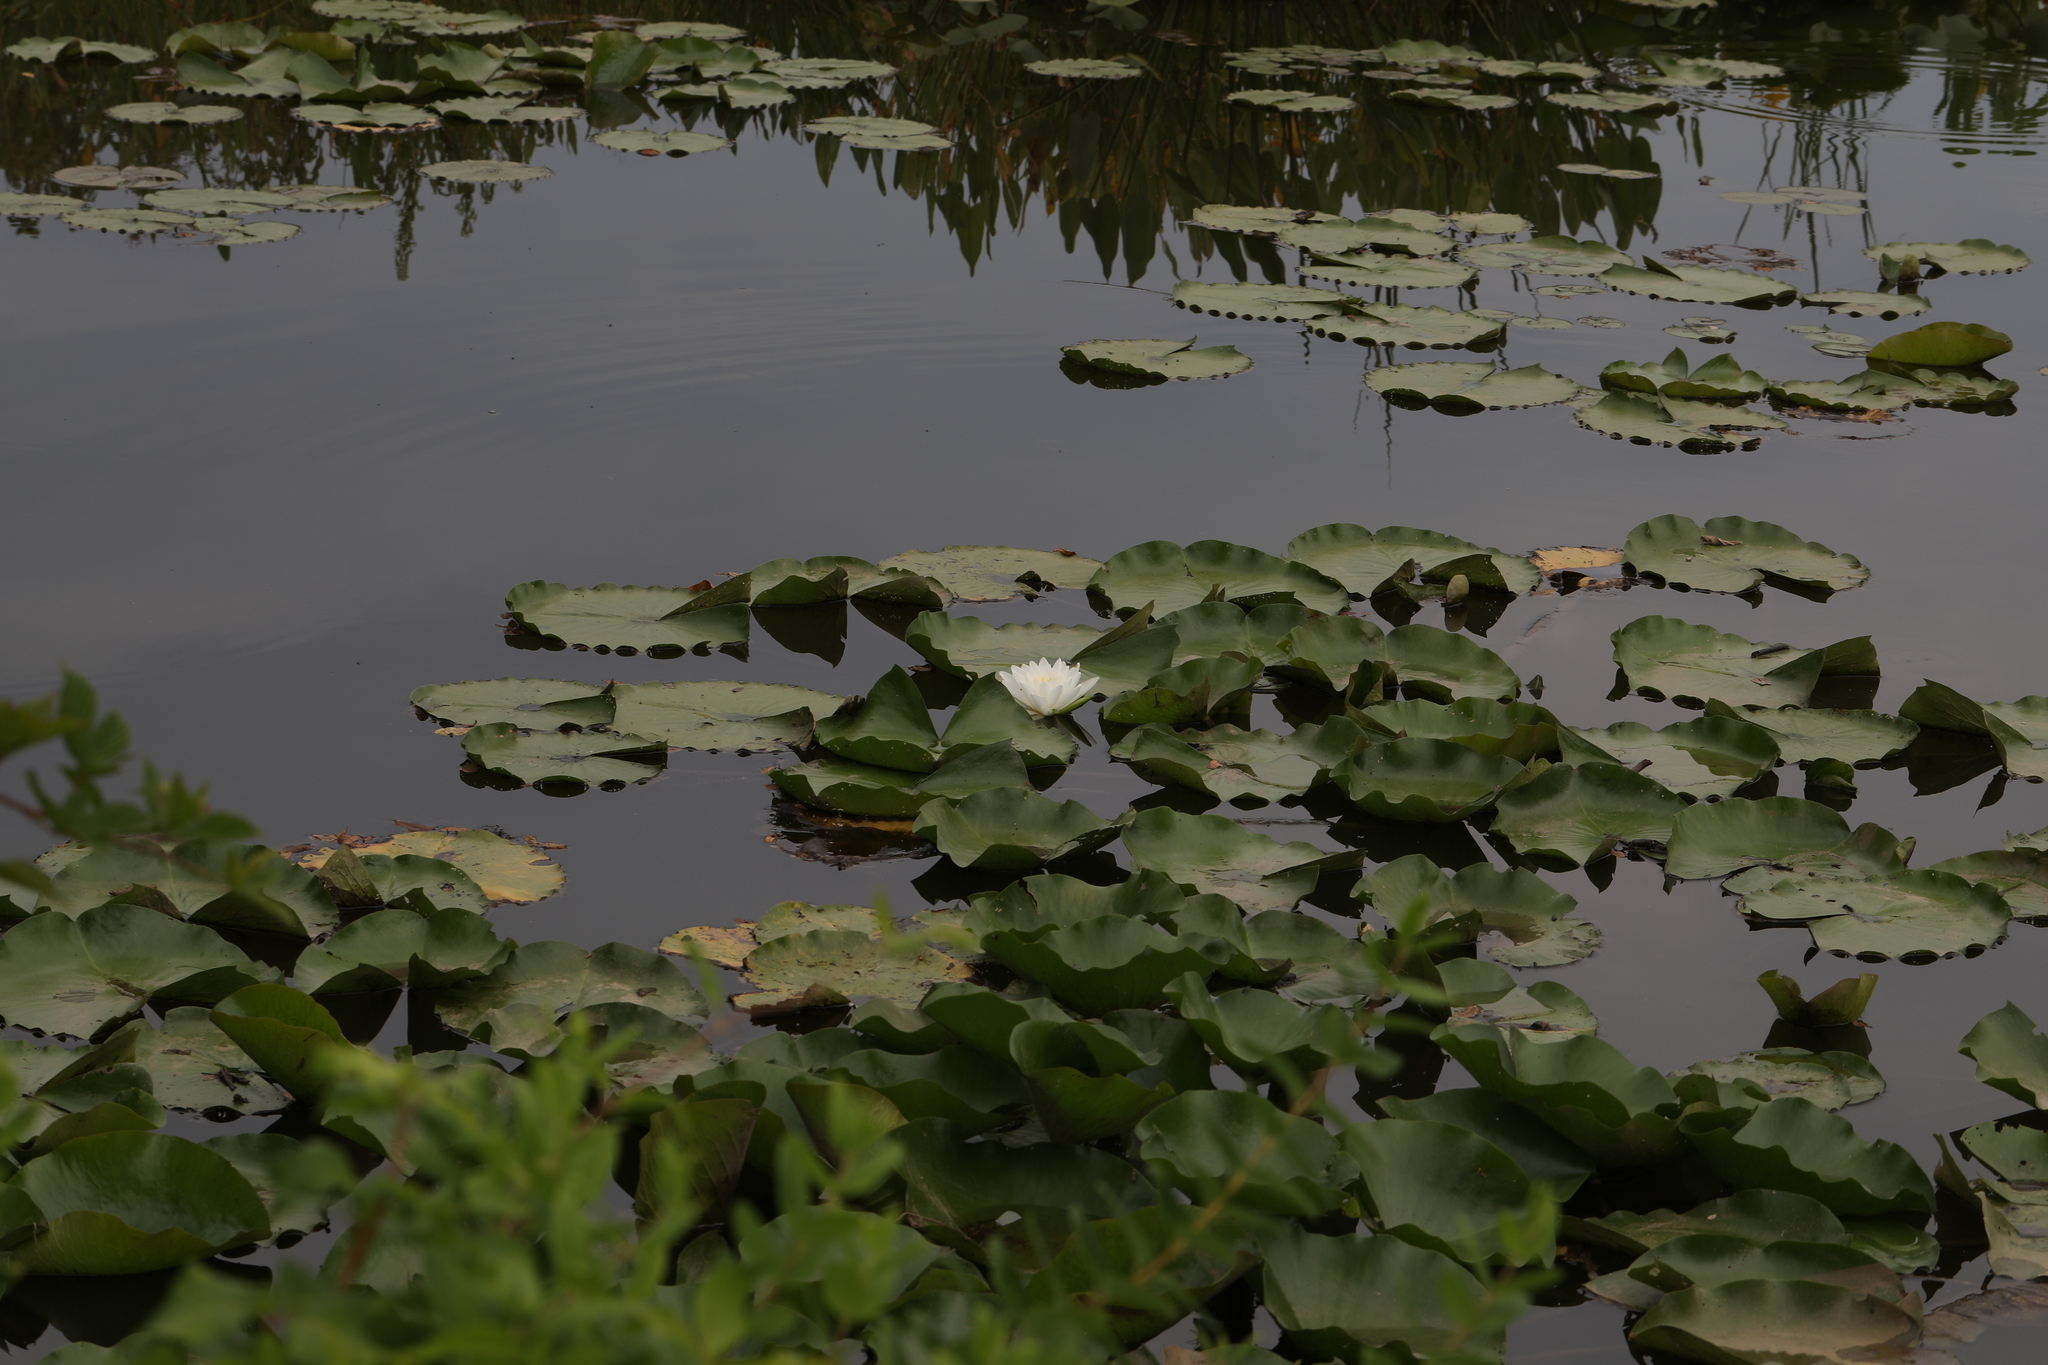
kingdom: Plantae
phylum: Tracheophyta
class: Magnoliopsida
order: Nymphaeales
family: Nymphaeaceae
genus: Nymphaea
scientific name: Nymphaea odorata
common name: Fragrant water-lily
